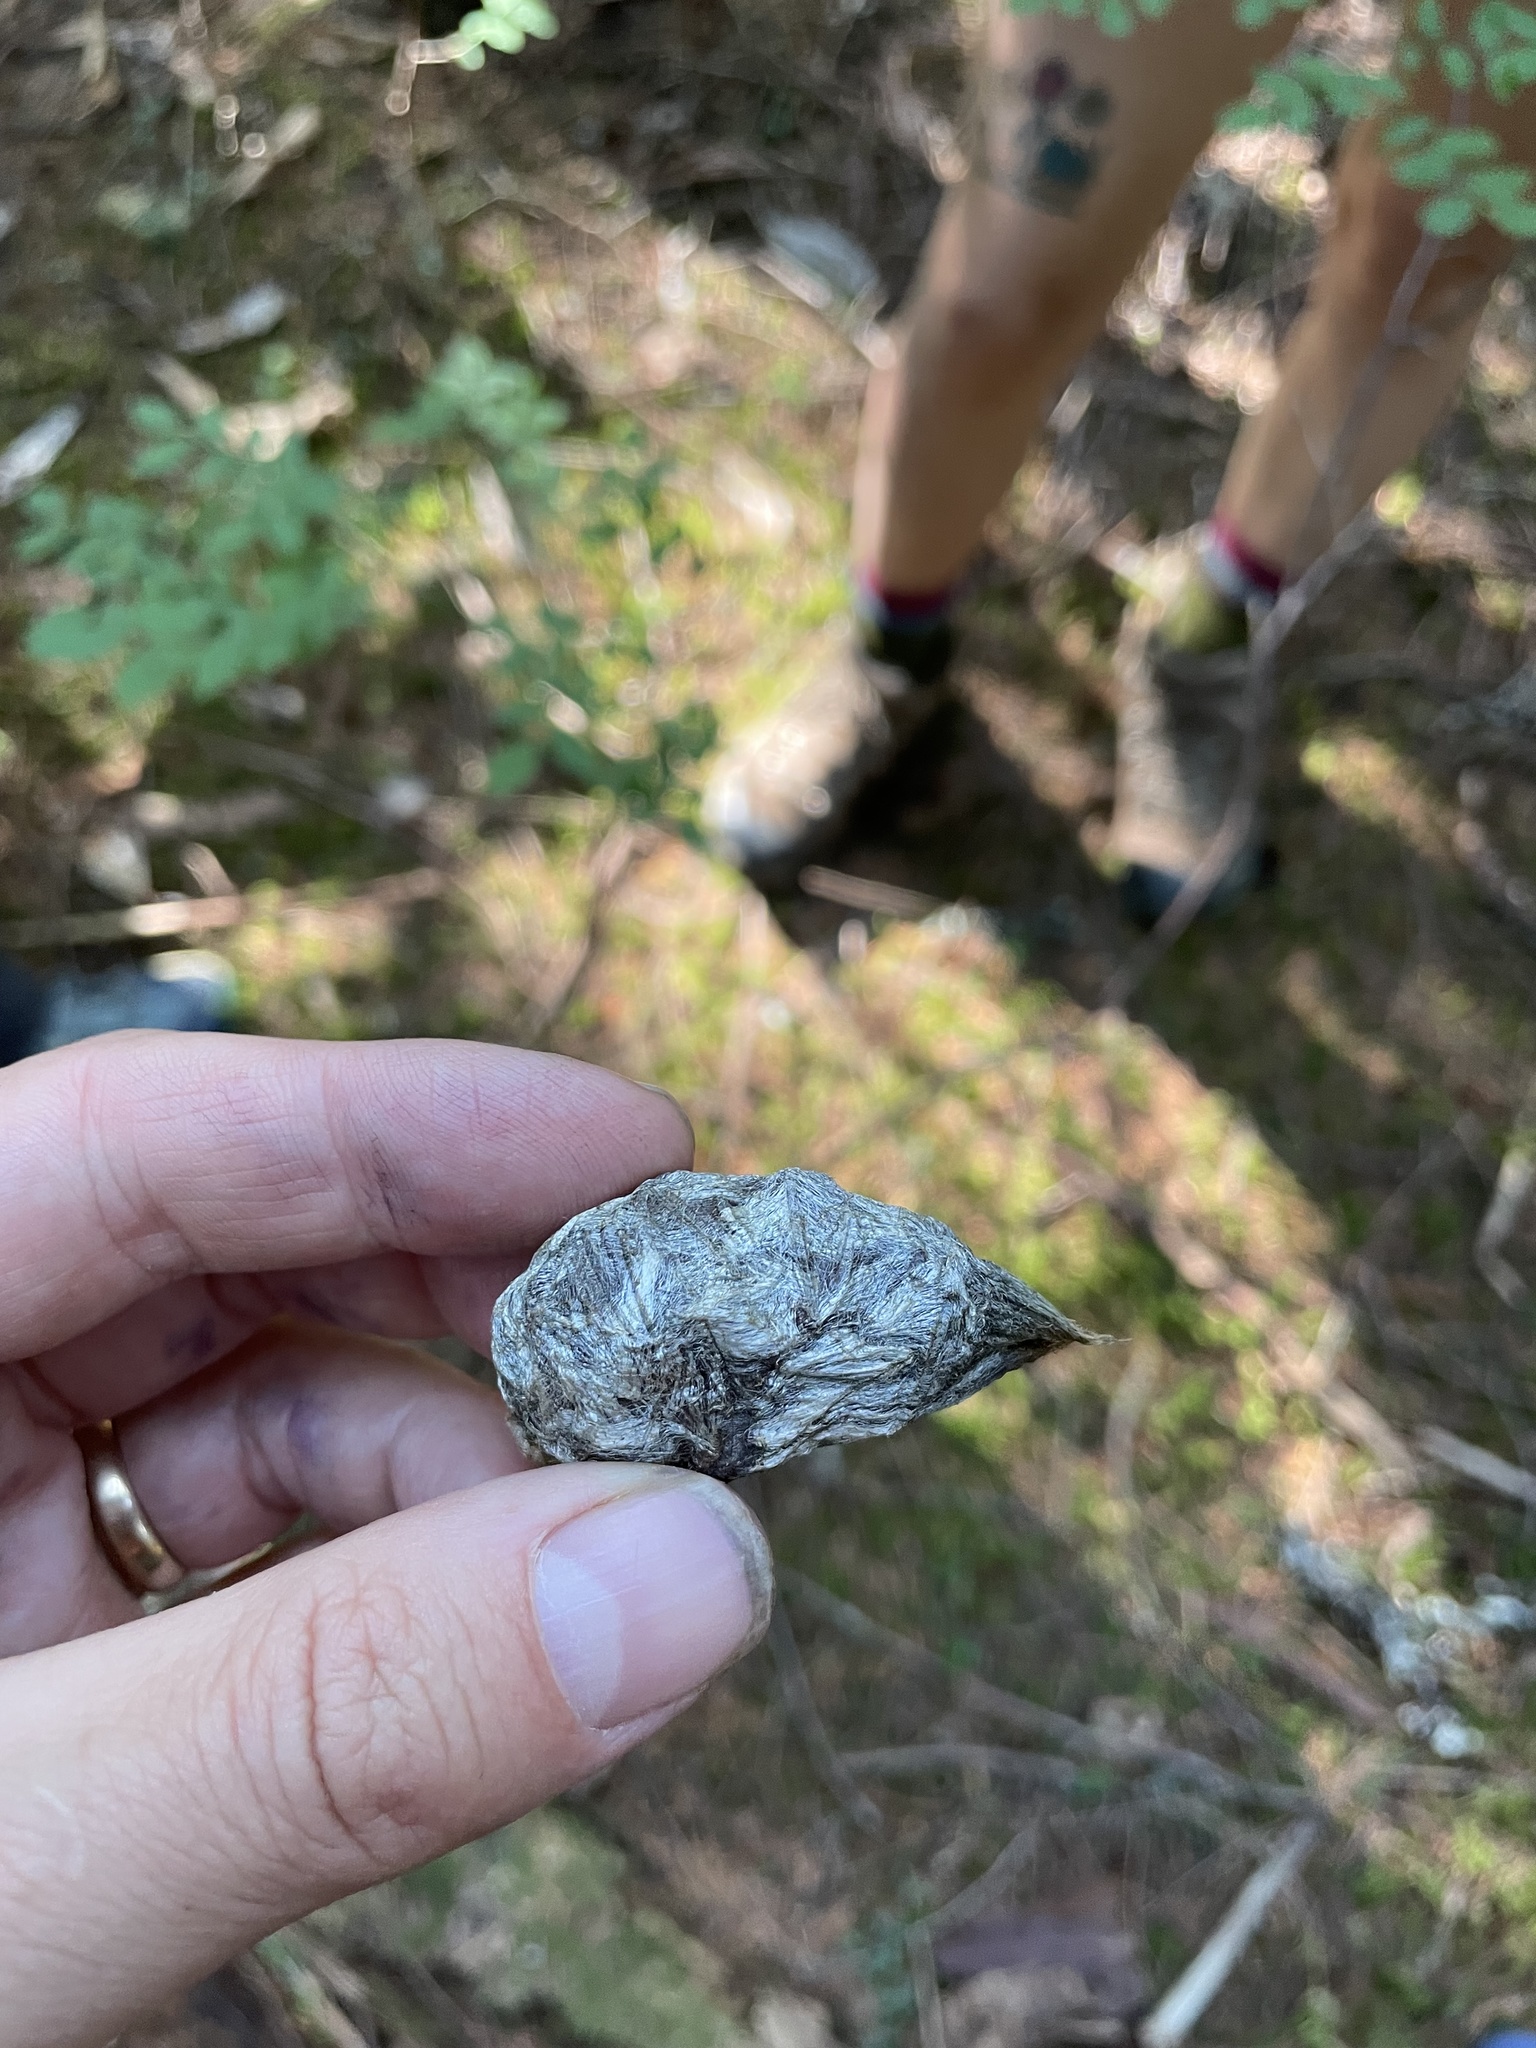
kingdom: Animalia
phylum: Arthropoda
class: Insecta
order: Lepidoptera
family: Saturniidae
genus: Hyalophora
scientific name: Hyalophora euryalus
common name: Ceanothus silkmoth
